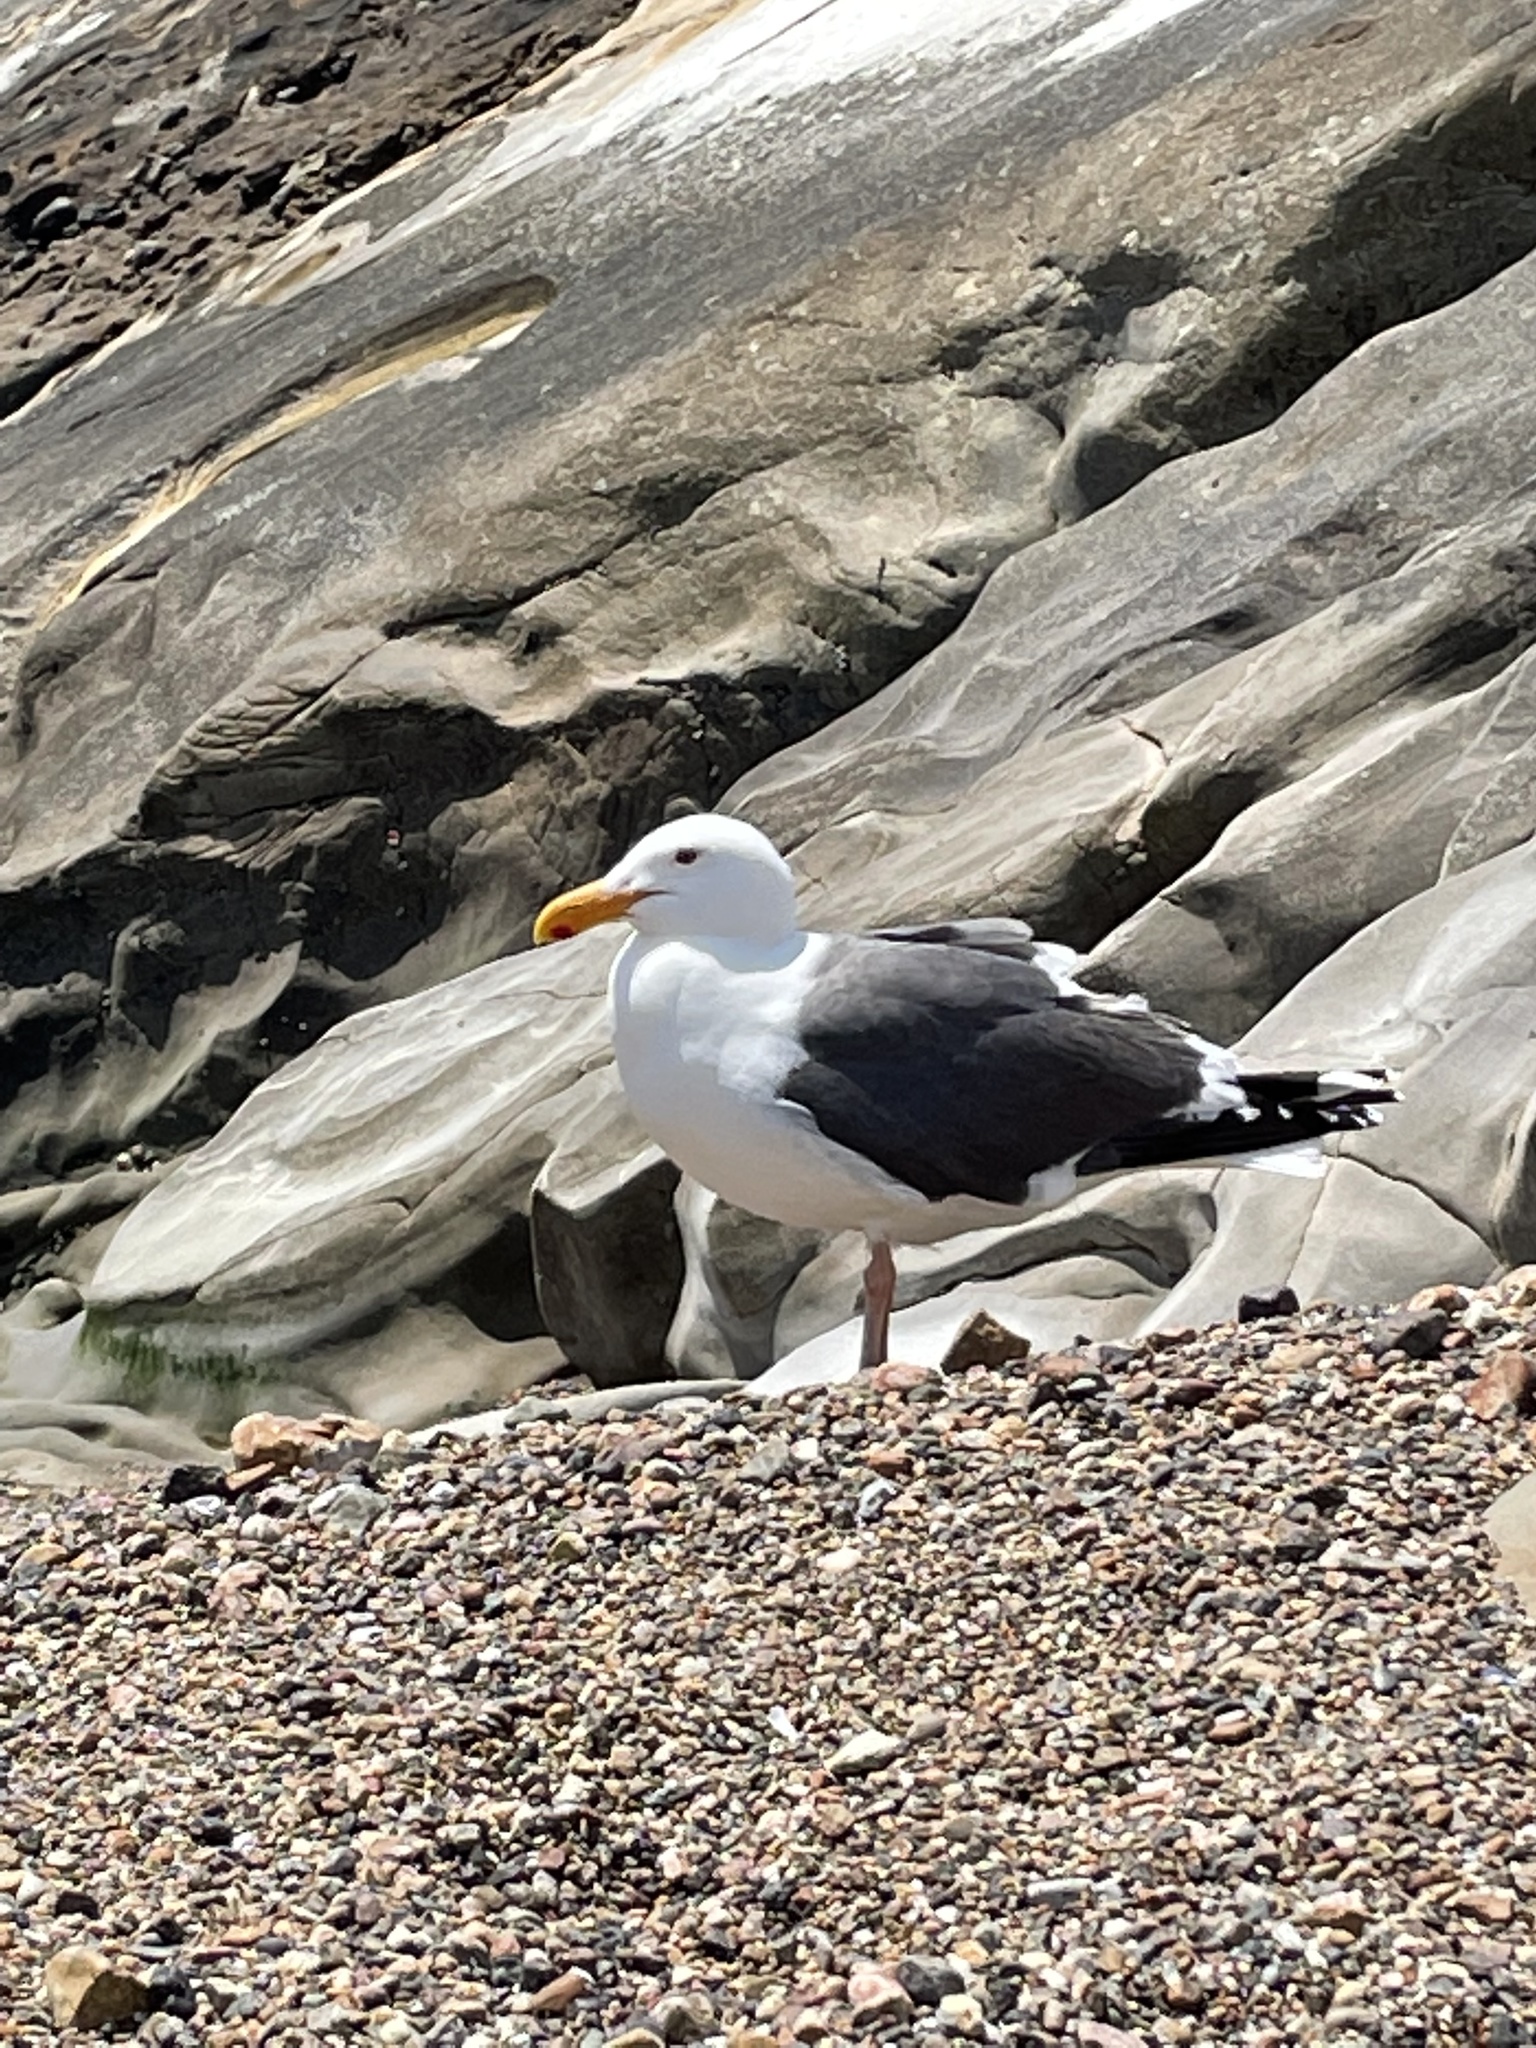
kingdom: Animalia
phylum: Chordata
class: Aves
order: Charadriiformes
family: Laridae
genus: Larus
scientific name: Larus occidentalis
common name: Western gull
